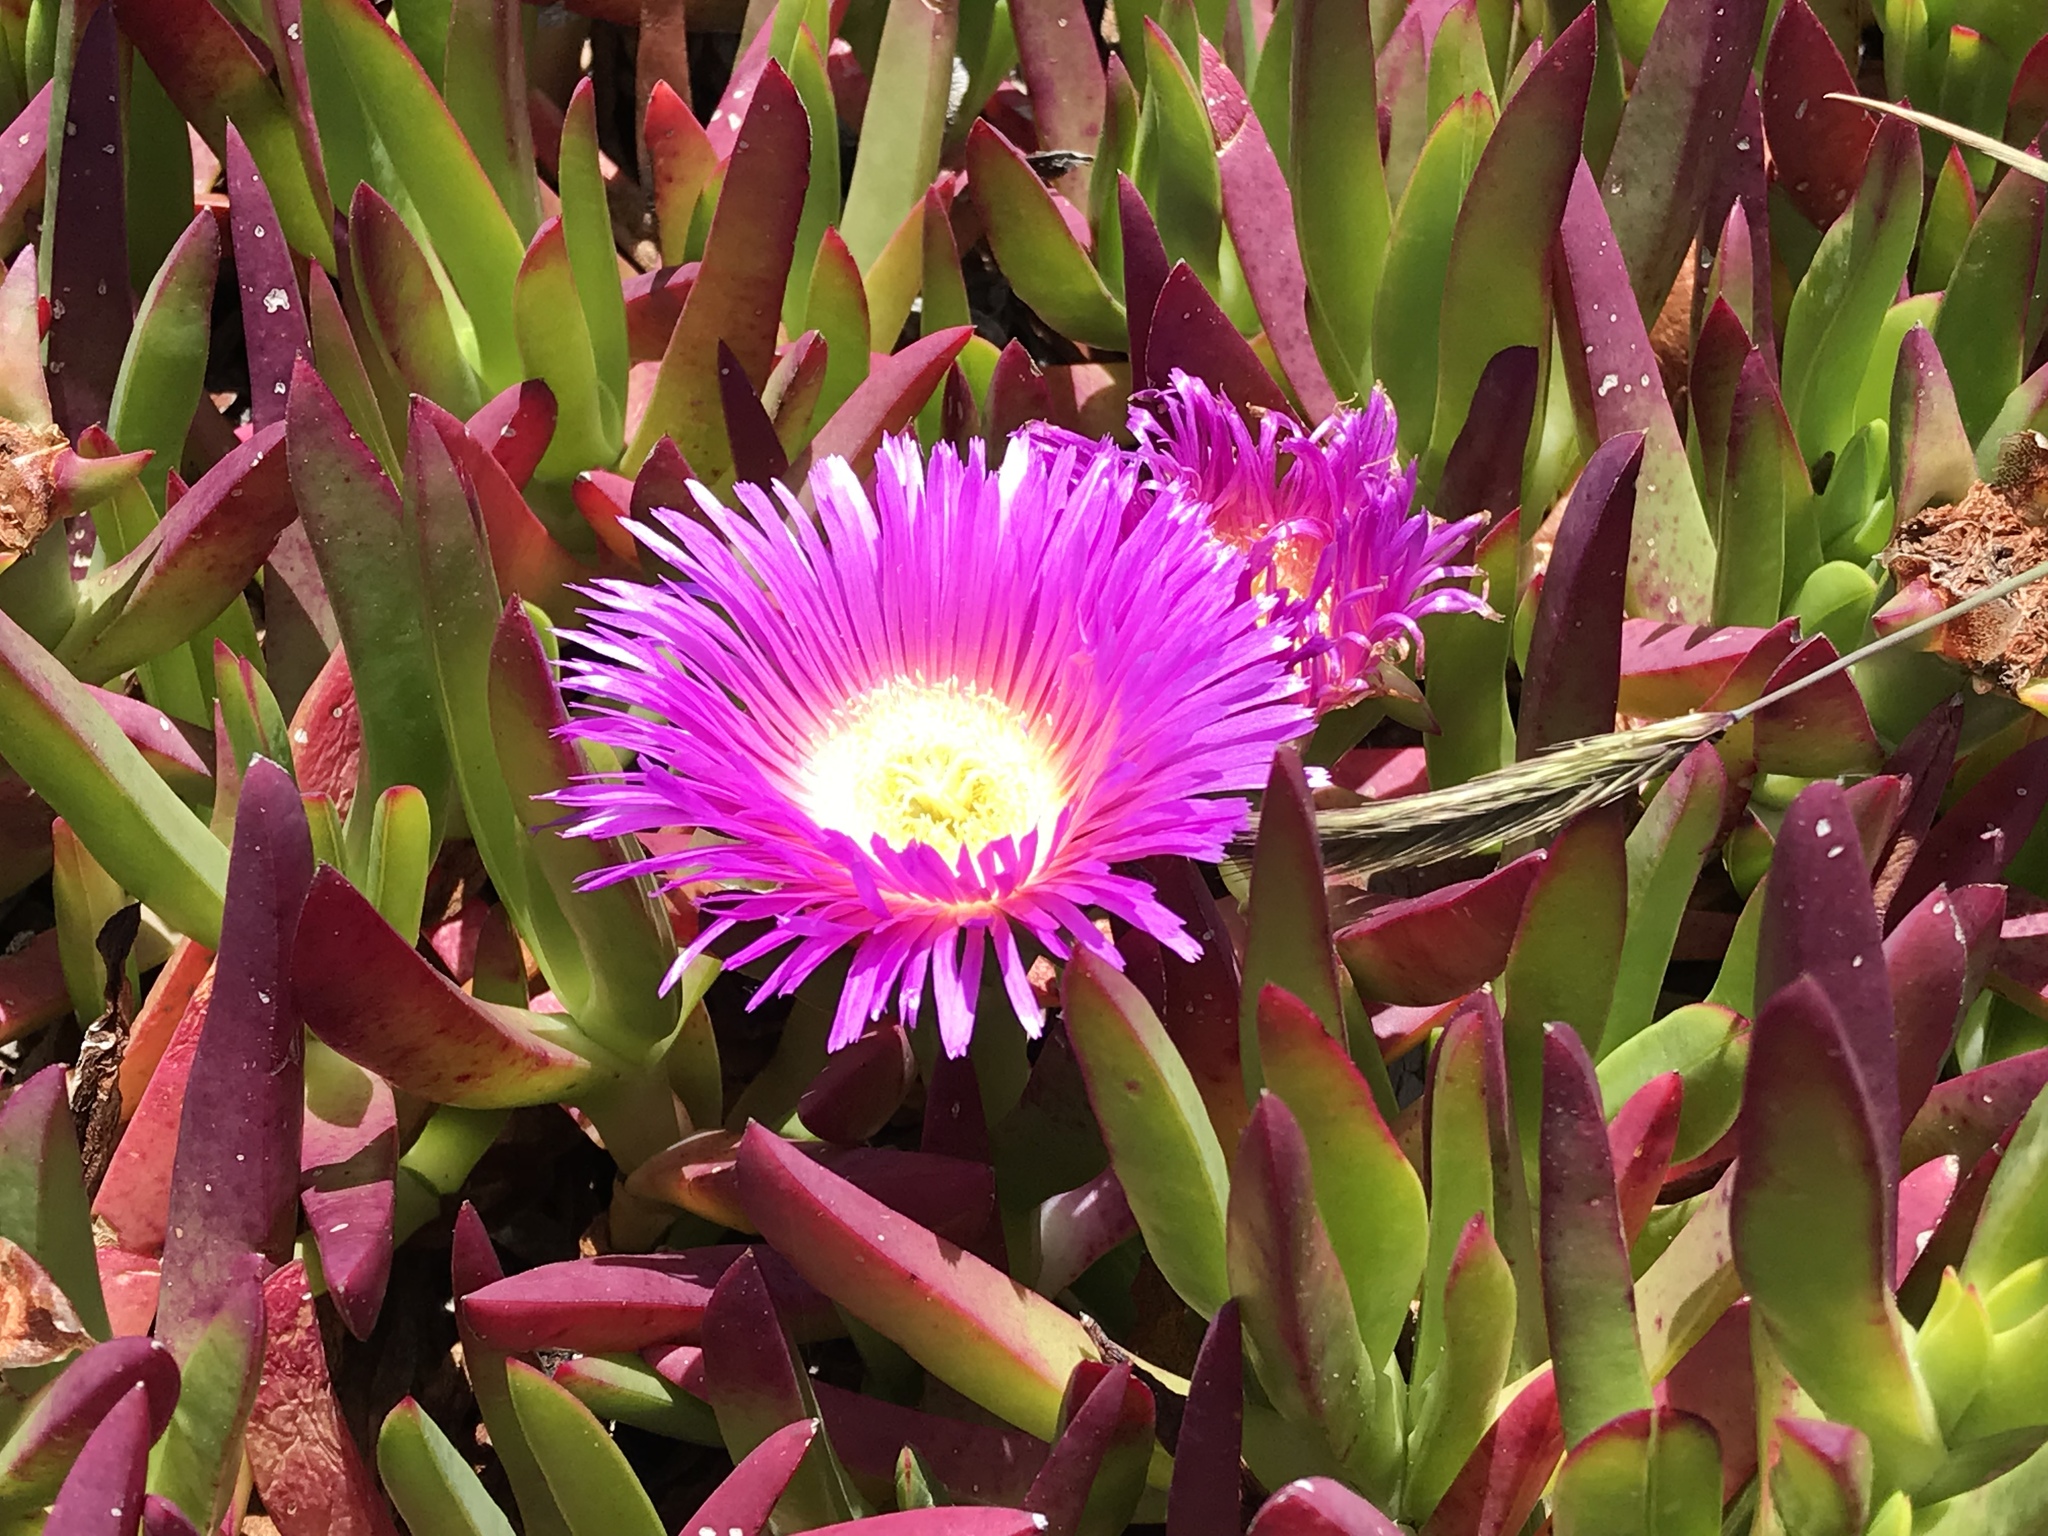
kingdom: Plantae
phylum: Tracheophyta
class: Magnoliopsida
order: Caryophyllales
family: Aizoaceae
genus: Carpobrotus
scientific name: Carpobrotus chilensis
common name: Sea fig
